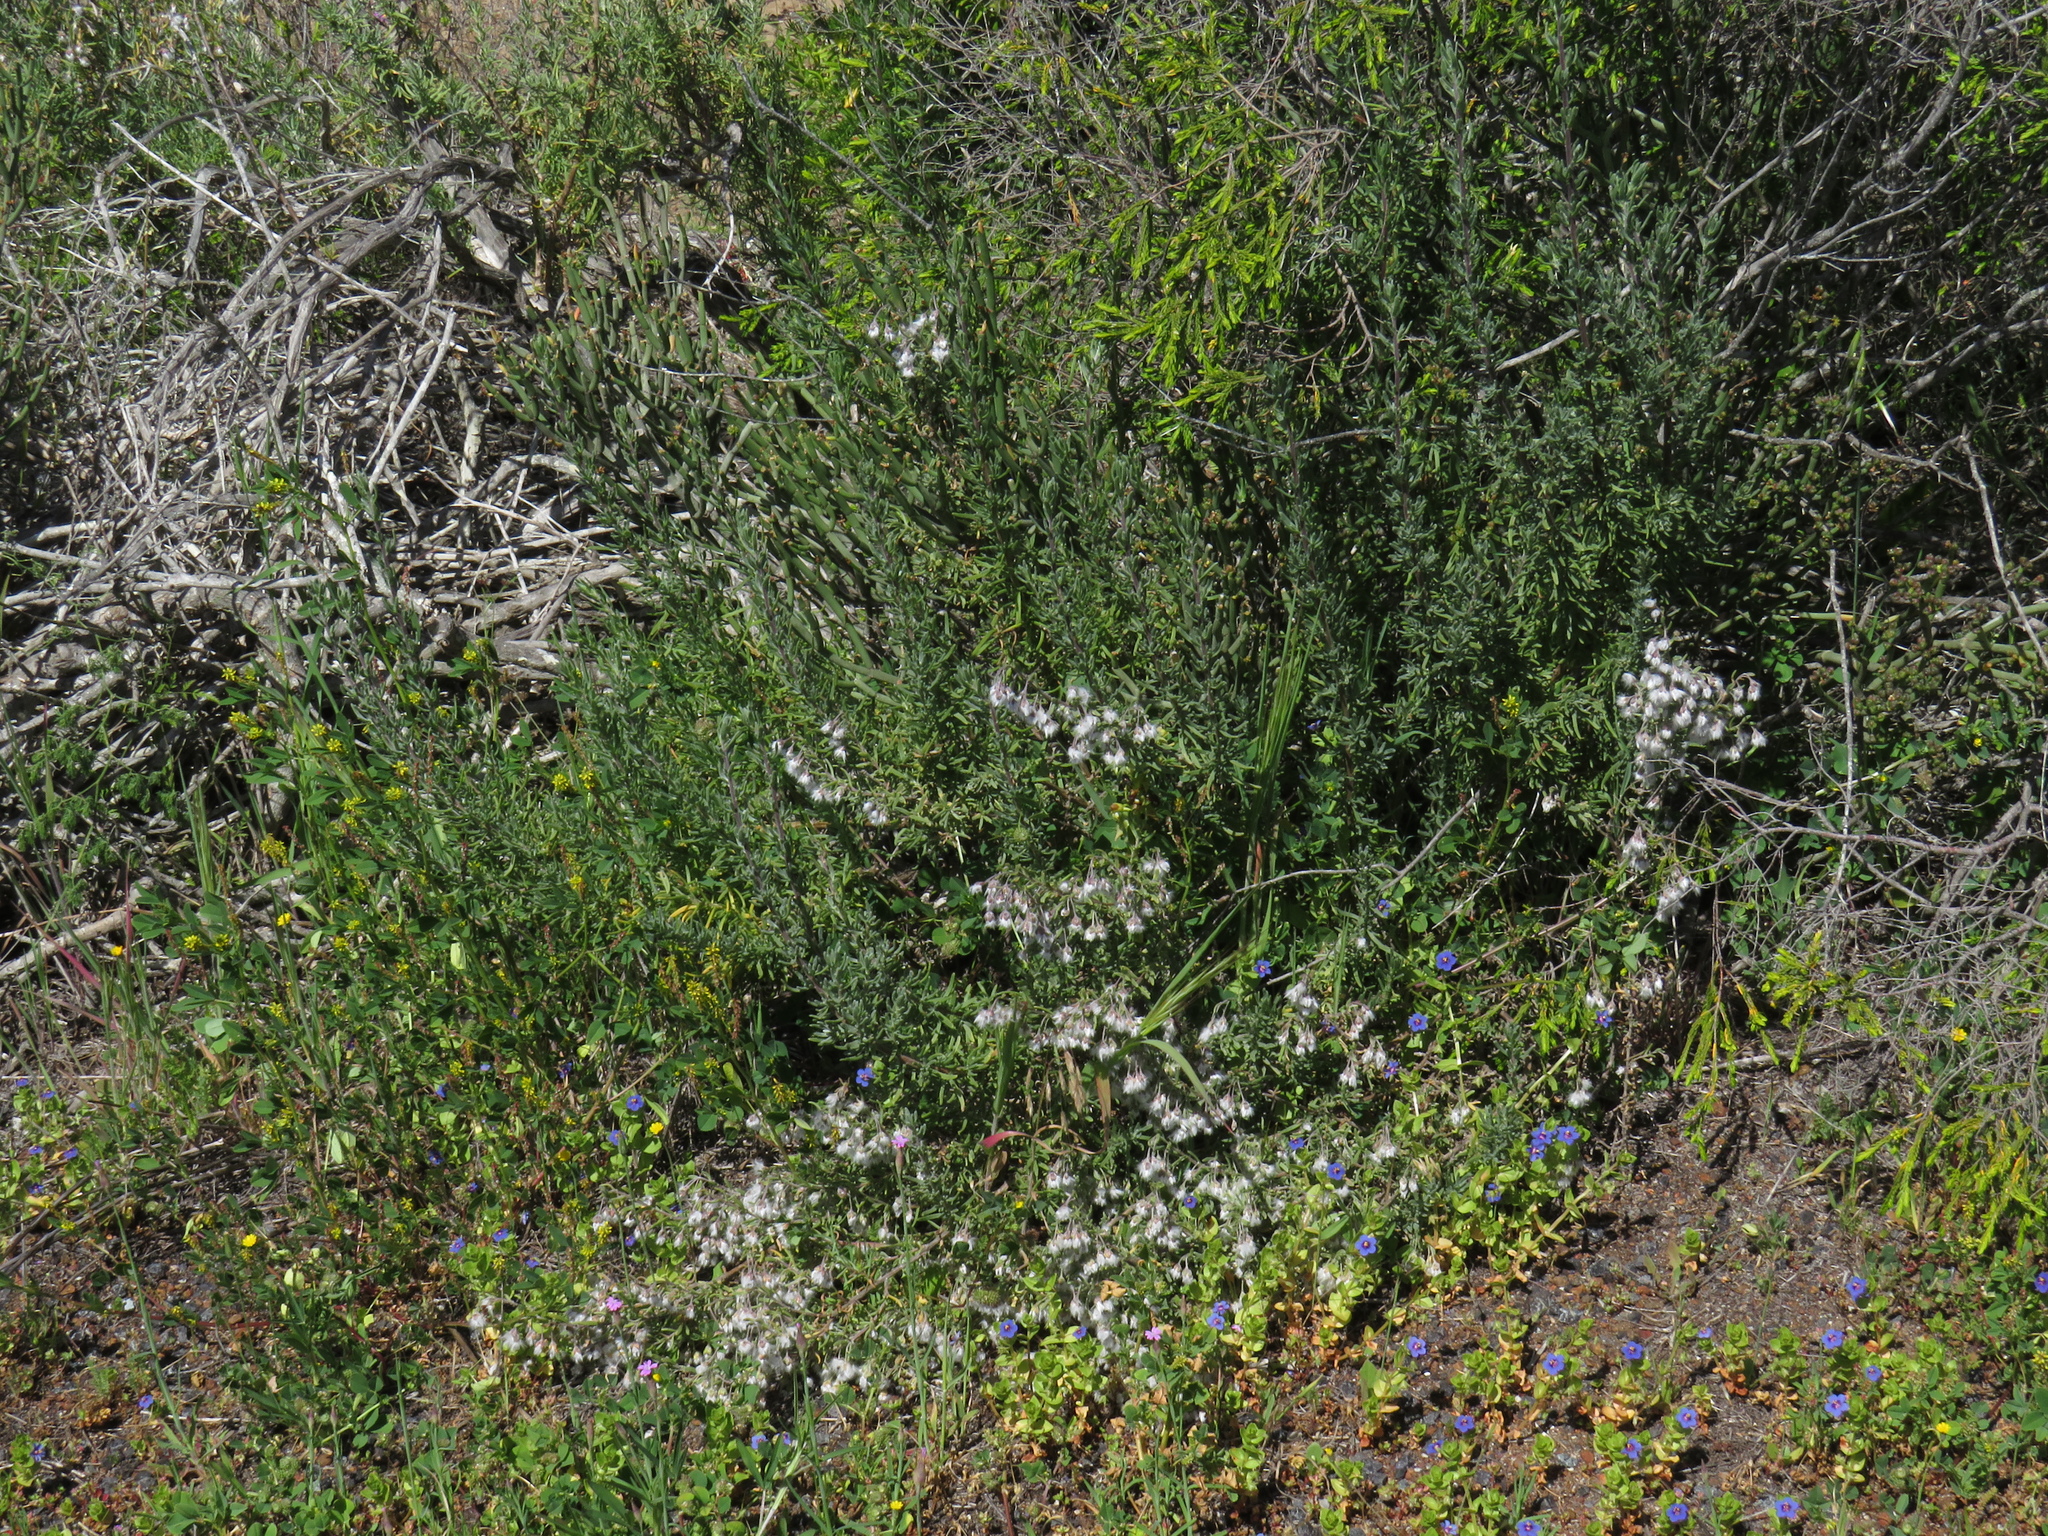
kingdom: Plantae
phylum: Tracheophyta
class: Magnoliopsida
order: Asterales
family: Asteraceae
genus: Eriocephalus
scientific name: Eriocephalus racemosus
